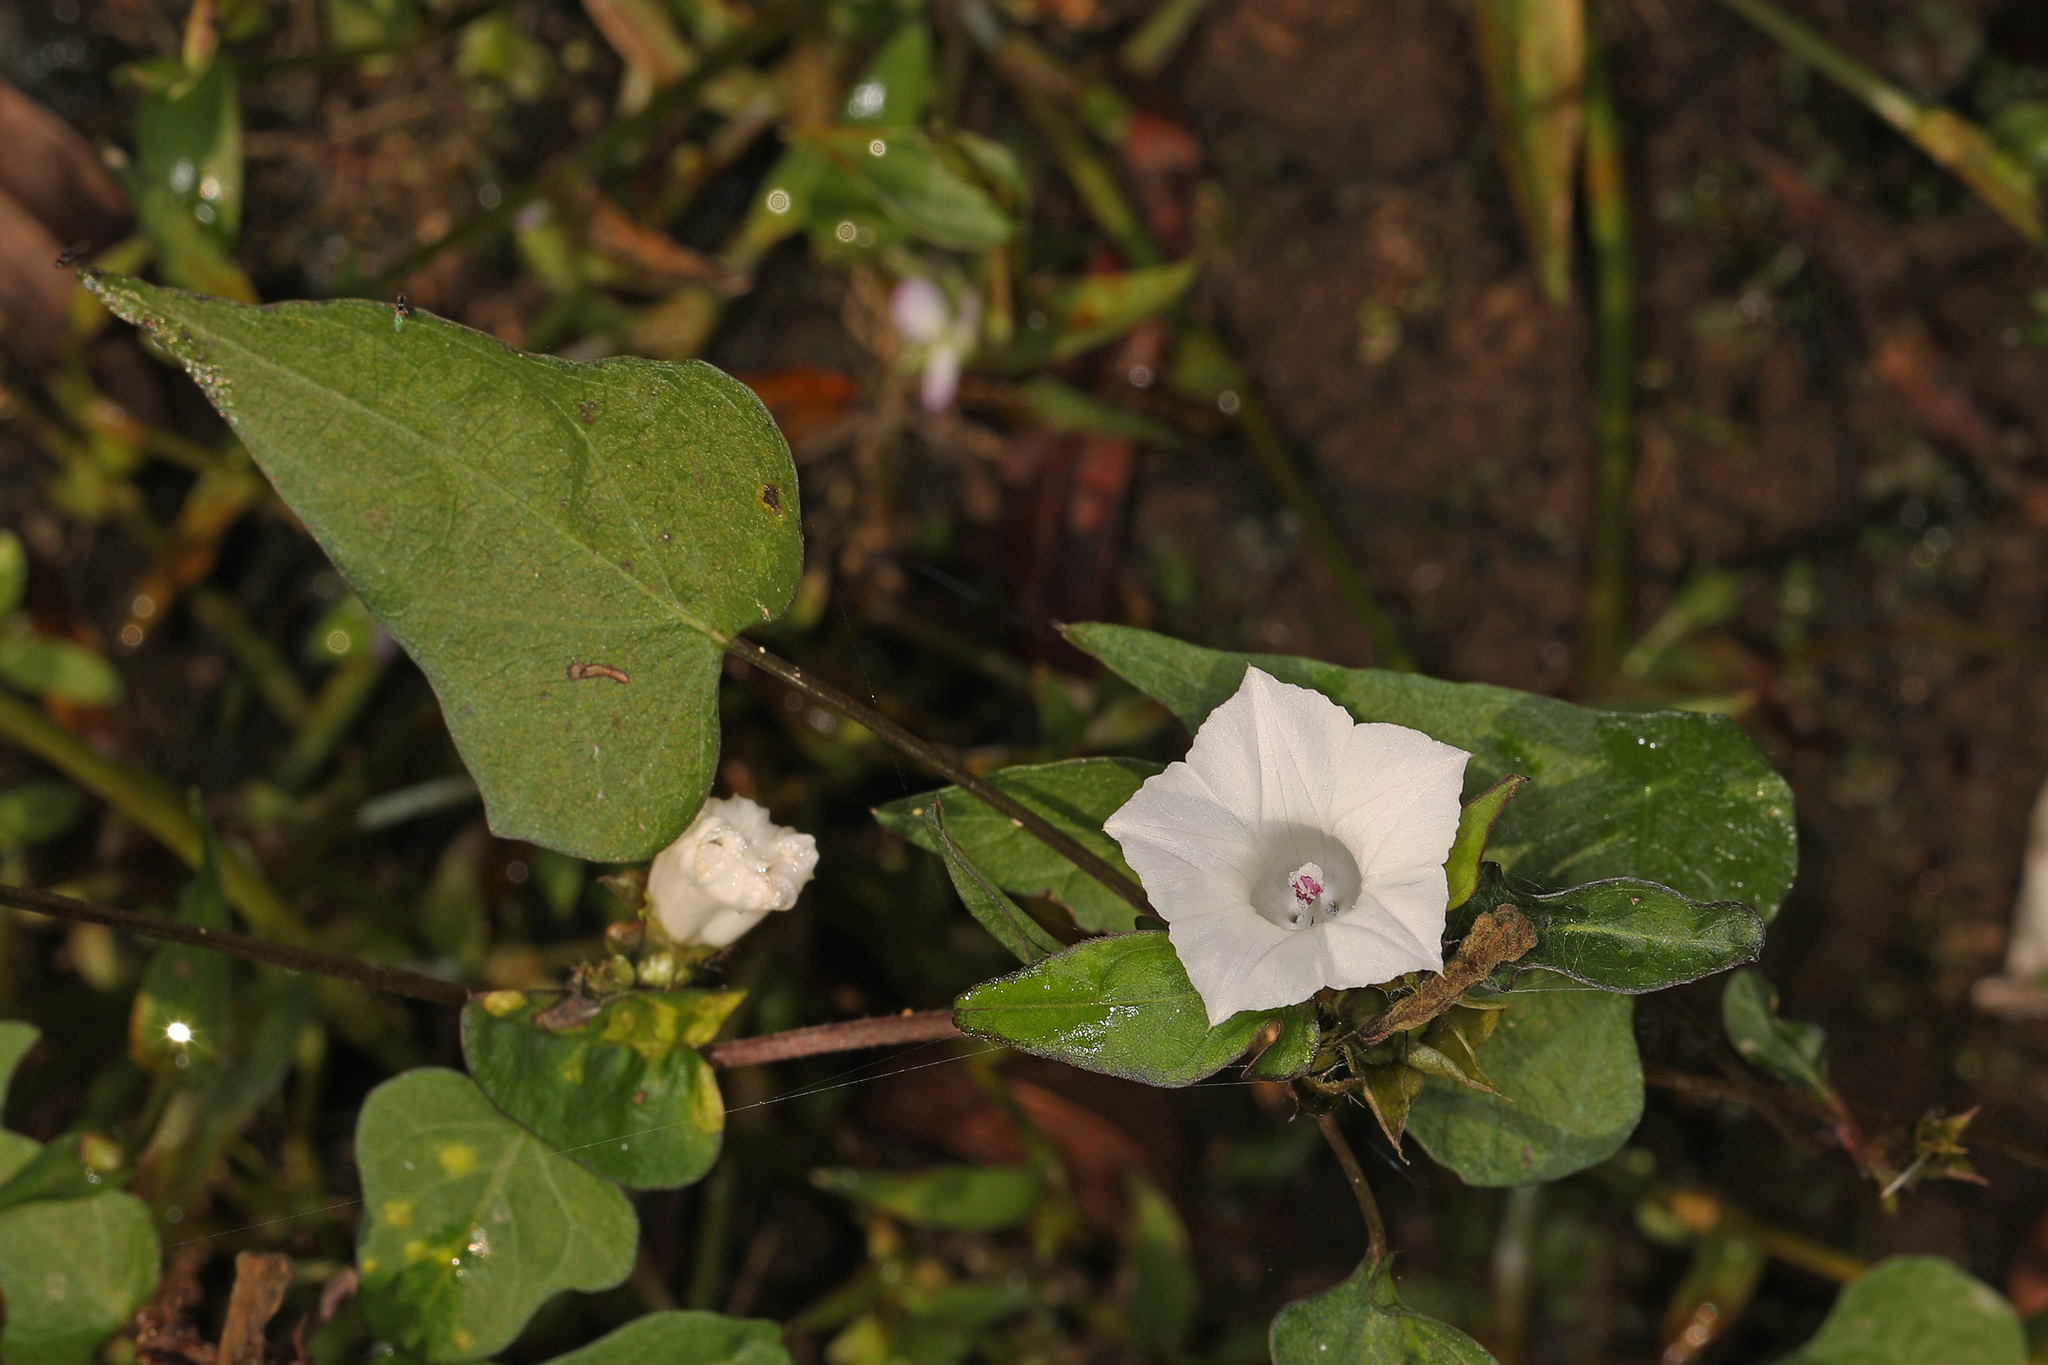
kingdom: Plantae
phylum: Tracheophyta
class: Magnoliopsida
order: Solanales
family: Convolvulaceae
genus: Ipomoea
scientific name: Ipomoea lacunosa
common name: White morning-glory
